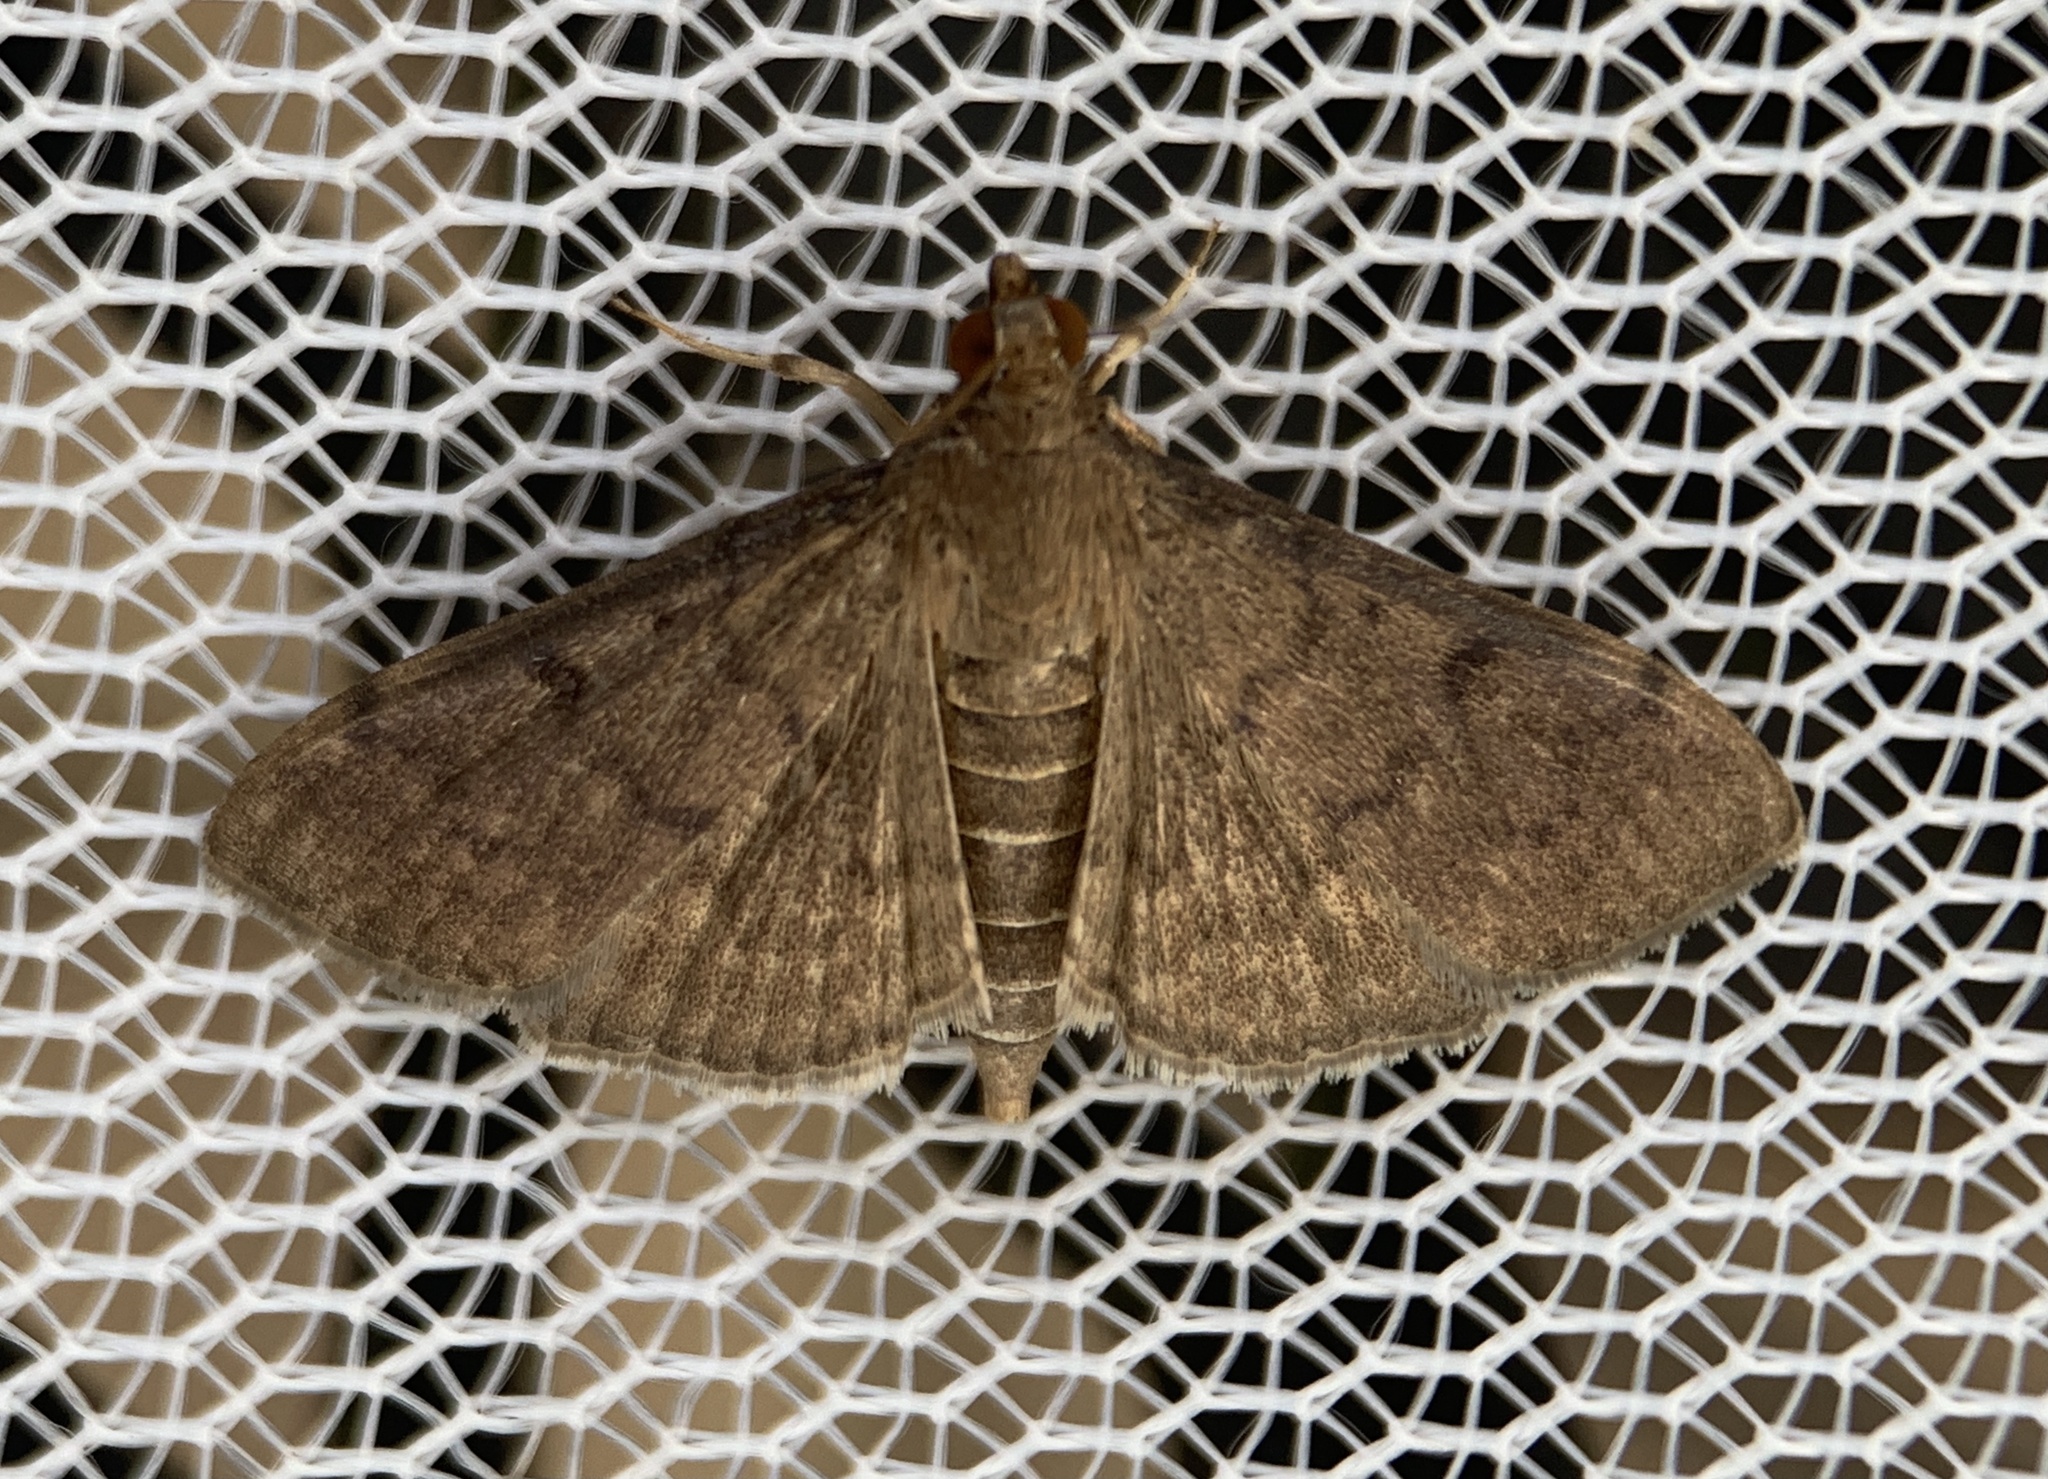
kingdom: Animalia
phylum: Arthropoda
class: Insecta
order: Lepidoptera
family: Crambidae
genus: Herpetogramma
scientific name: Herpetogramma phaeopteralis
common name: Dusky herpetogramma moth
